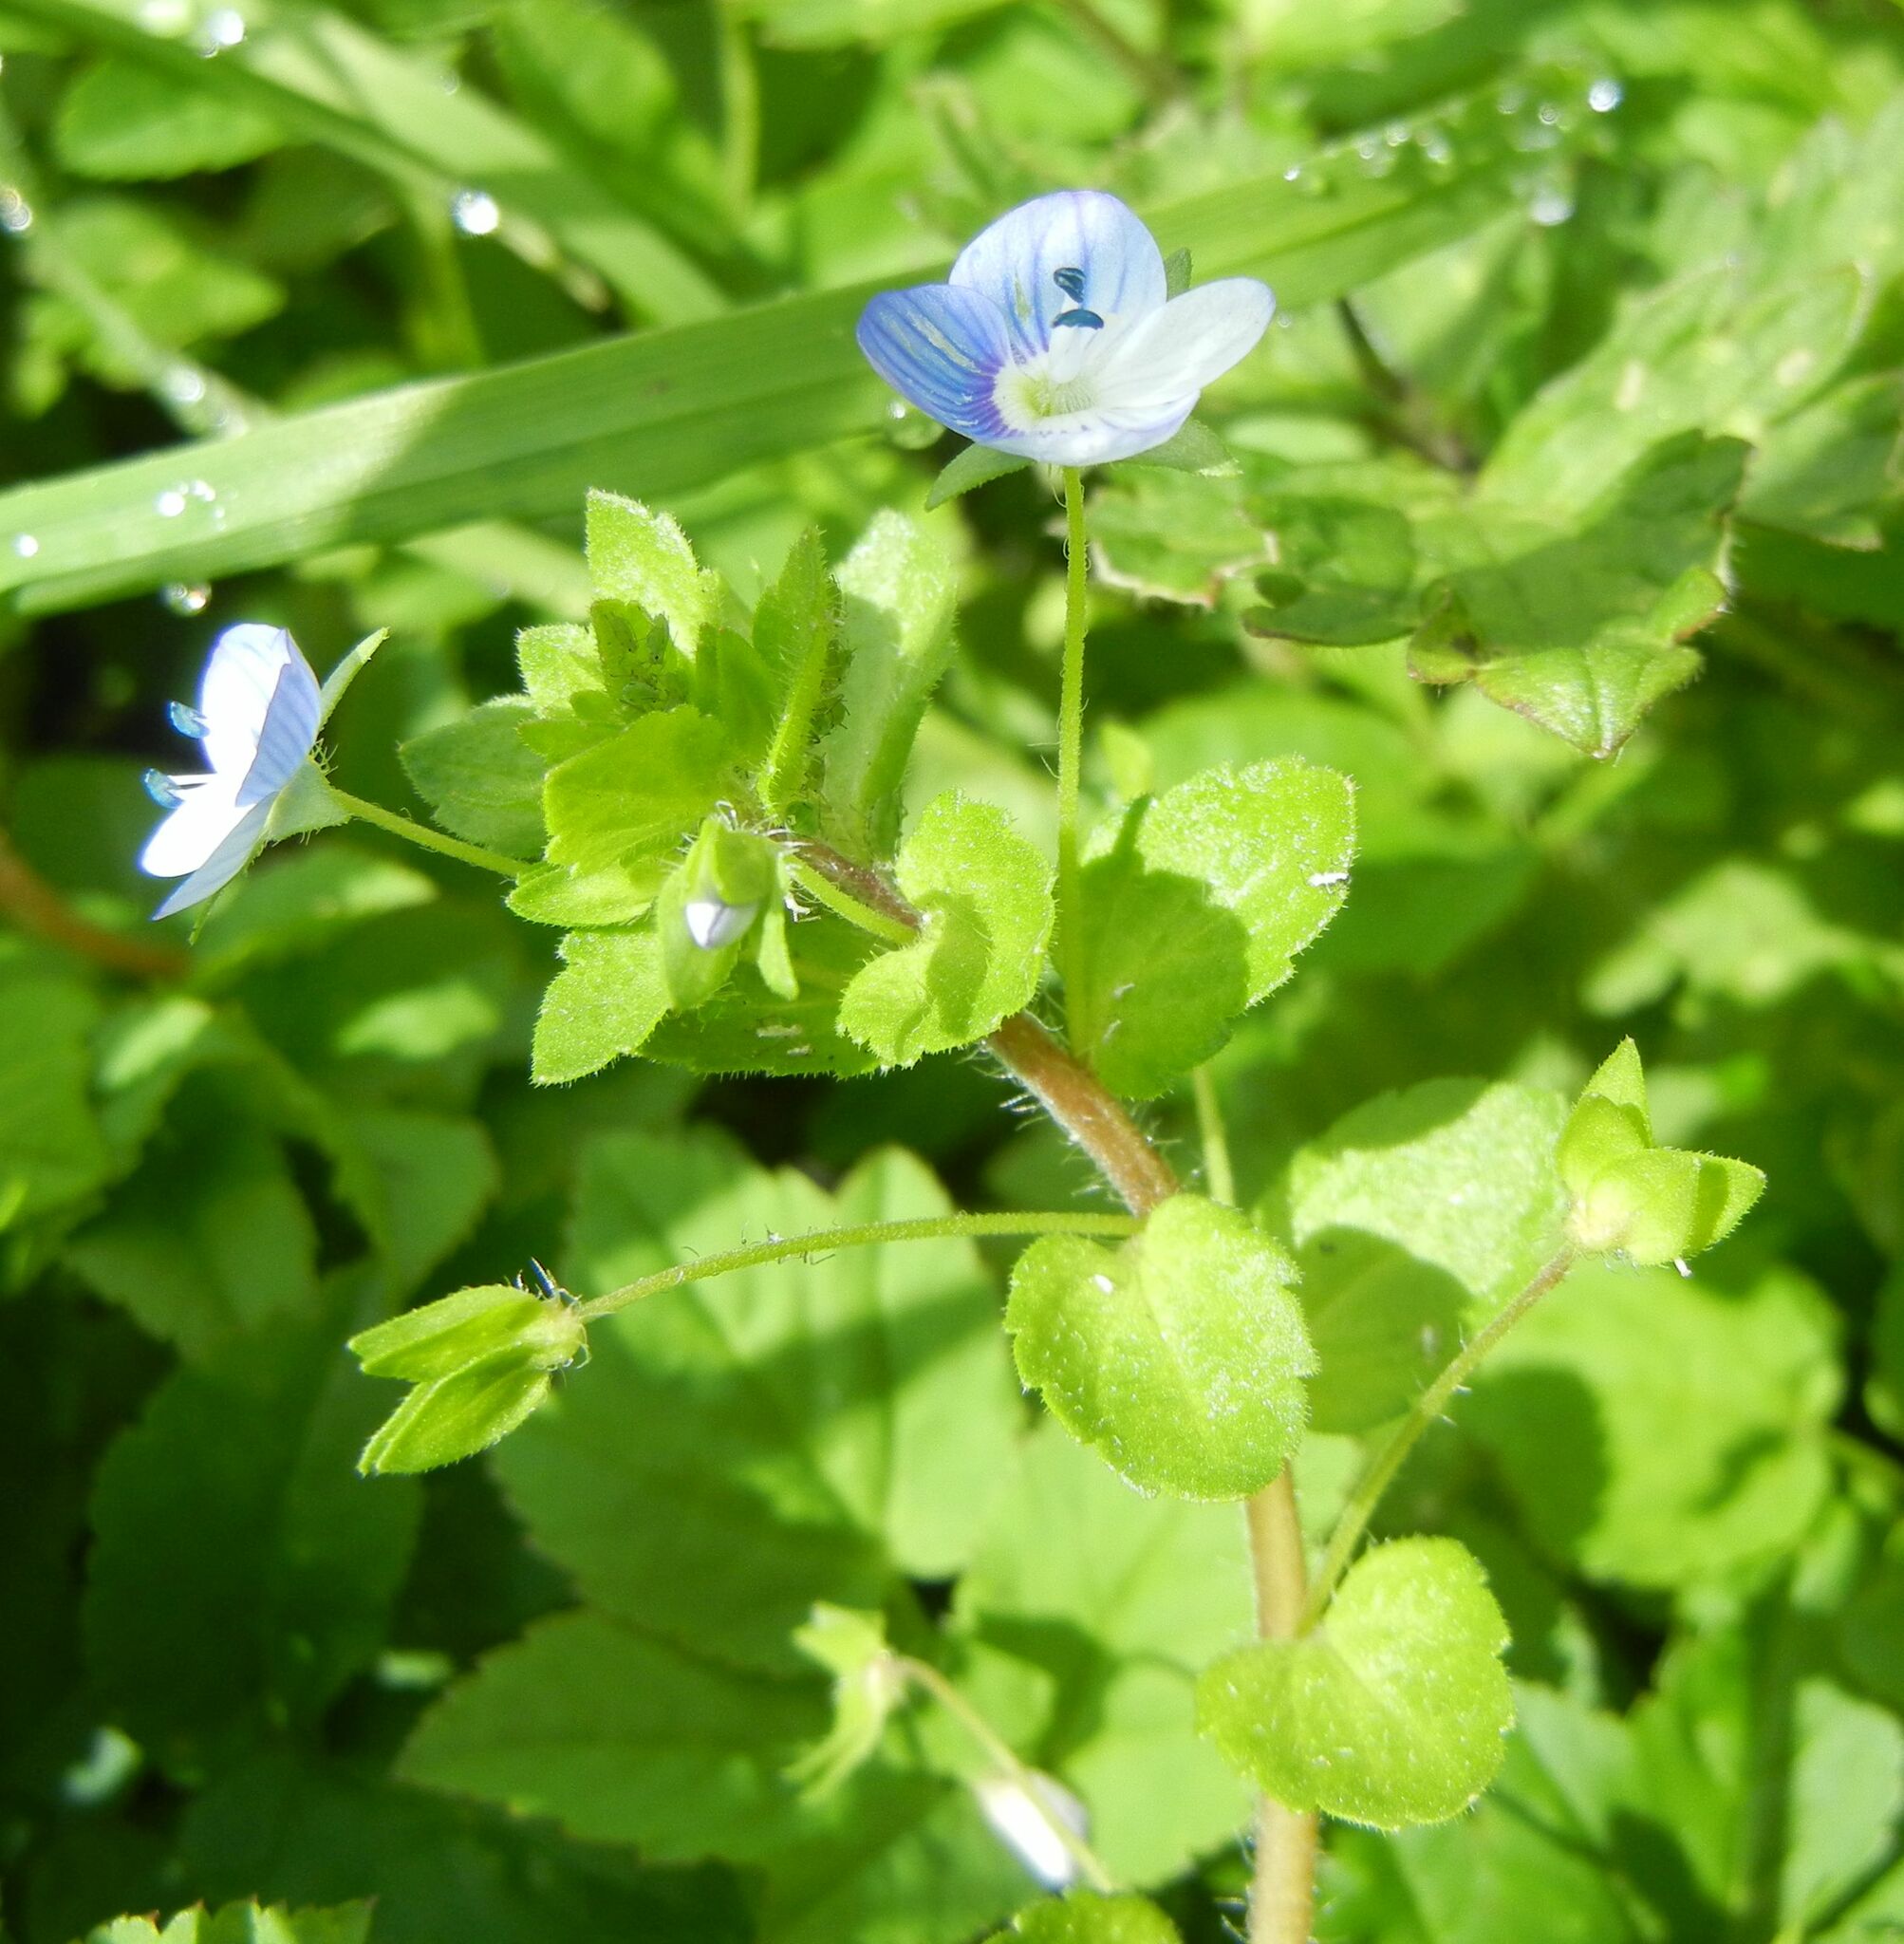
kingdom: Plantae
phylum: Tracheophyta
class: Magnoliopsida
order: Lamiales
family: Plantaginaceae
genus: Veronica
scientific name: Veronica persica
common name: Common field-speedwell
